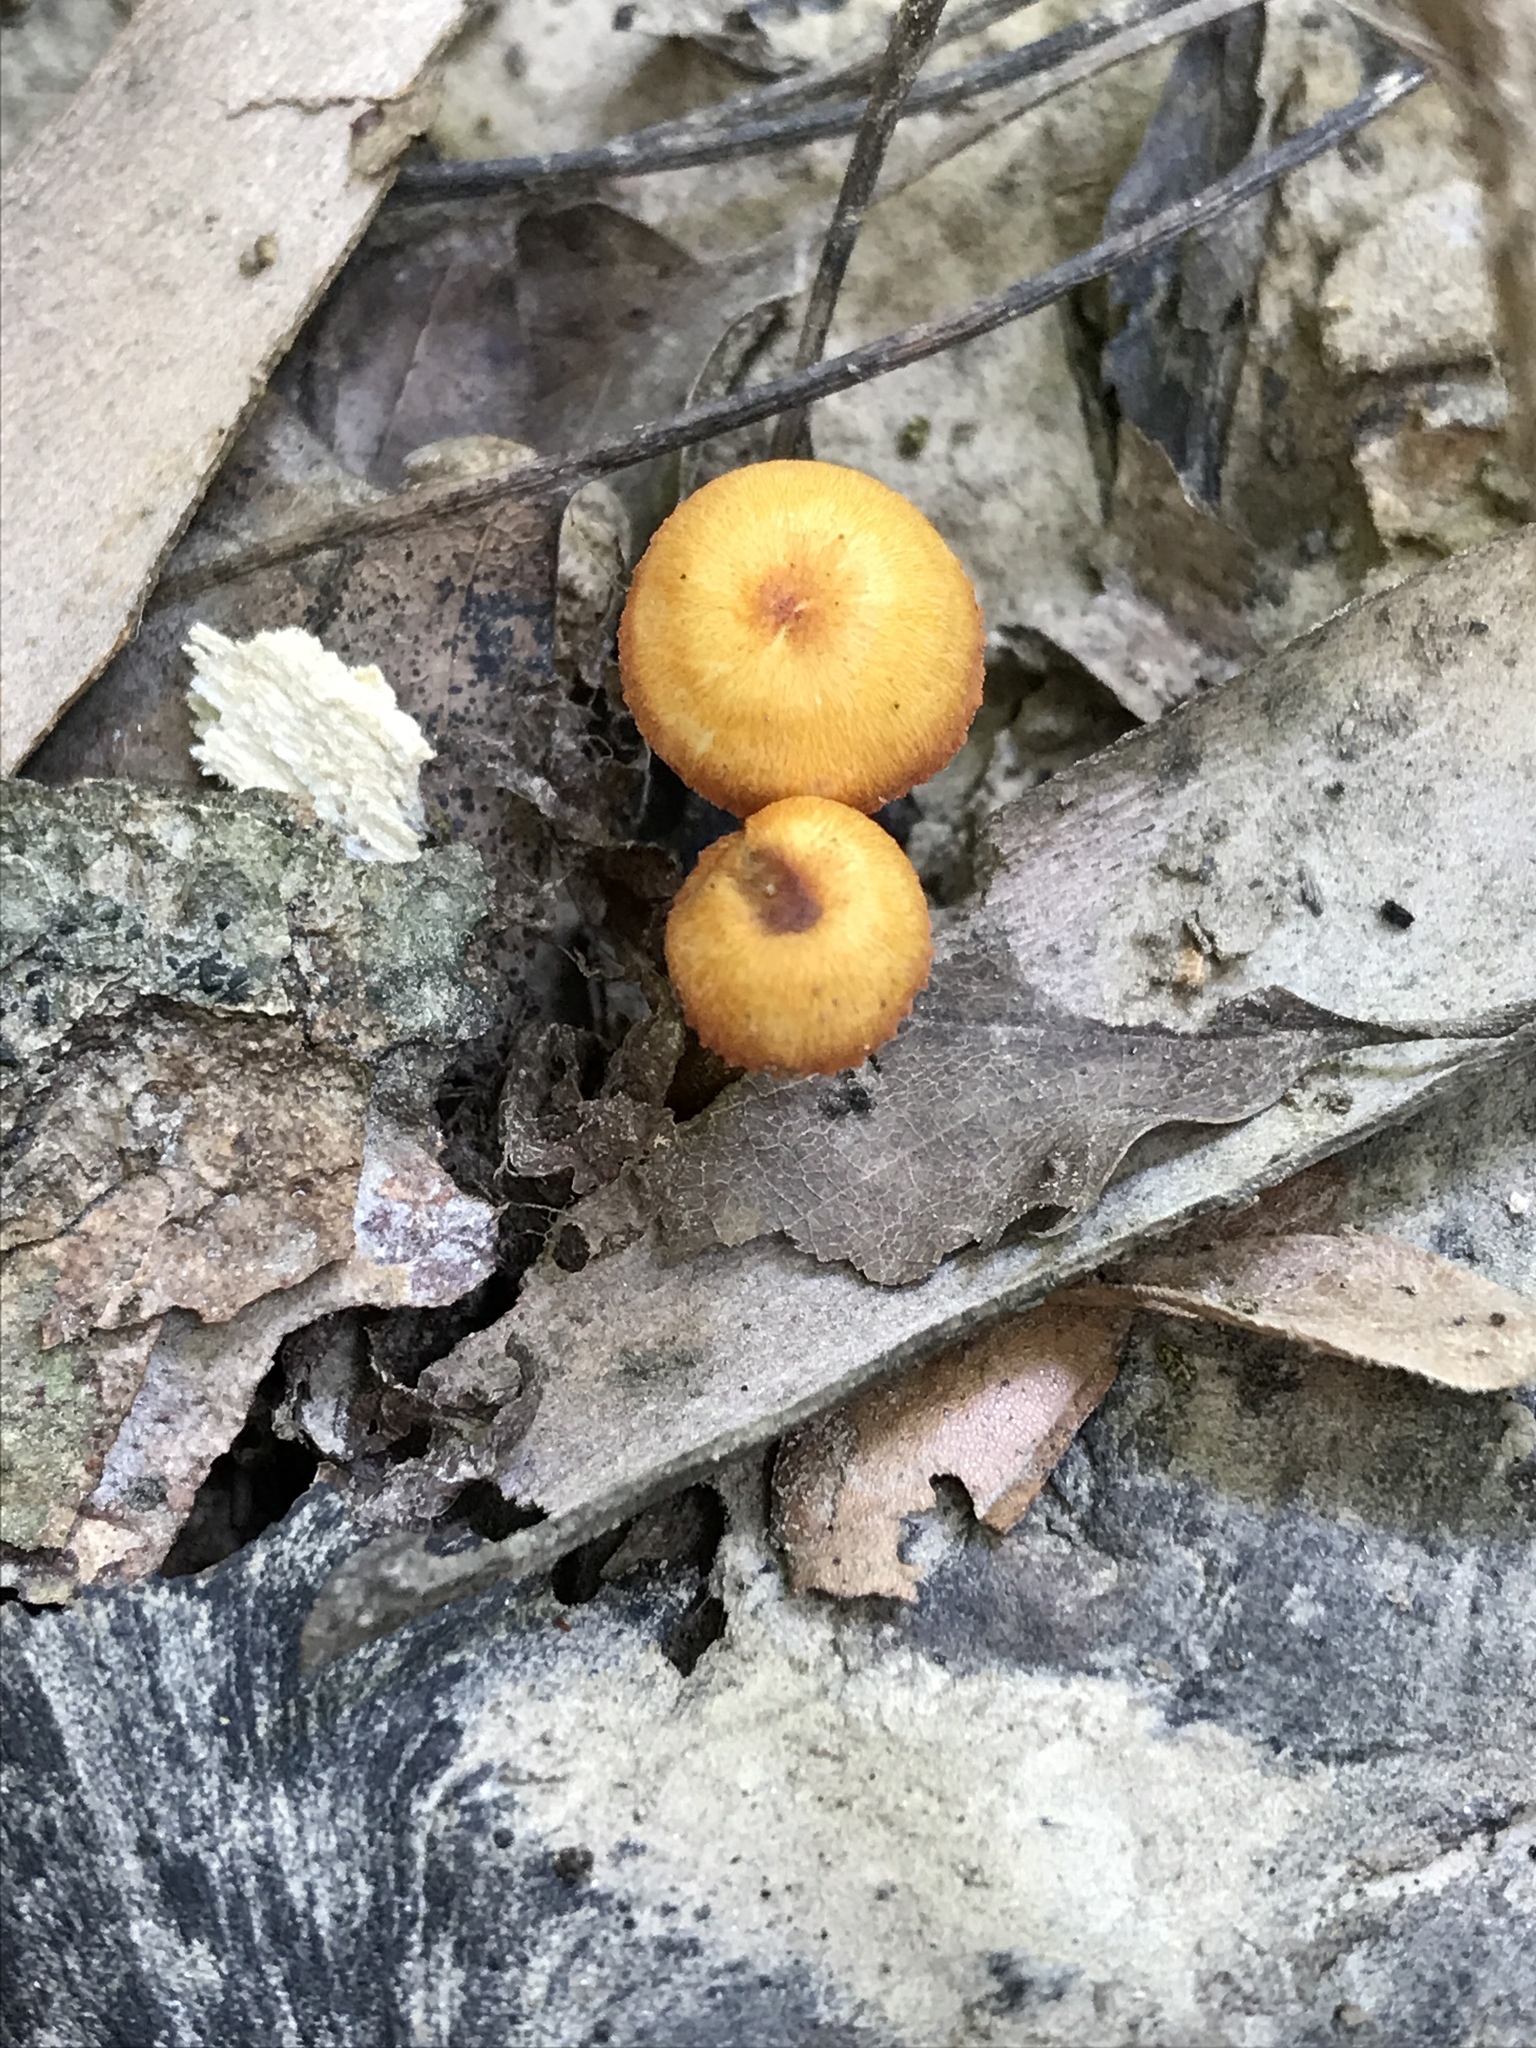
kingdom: Fungi
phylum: Basidiomycota
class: Agaricomycetes
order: Agaricales
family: Mycenaceae
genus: Mycena
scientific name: Mycena leaiana
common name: Orange mycena
